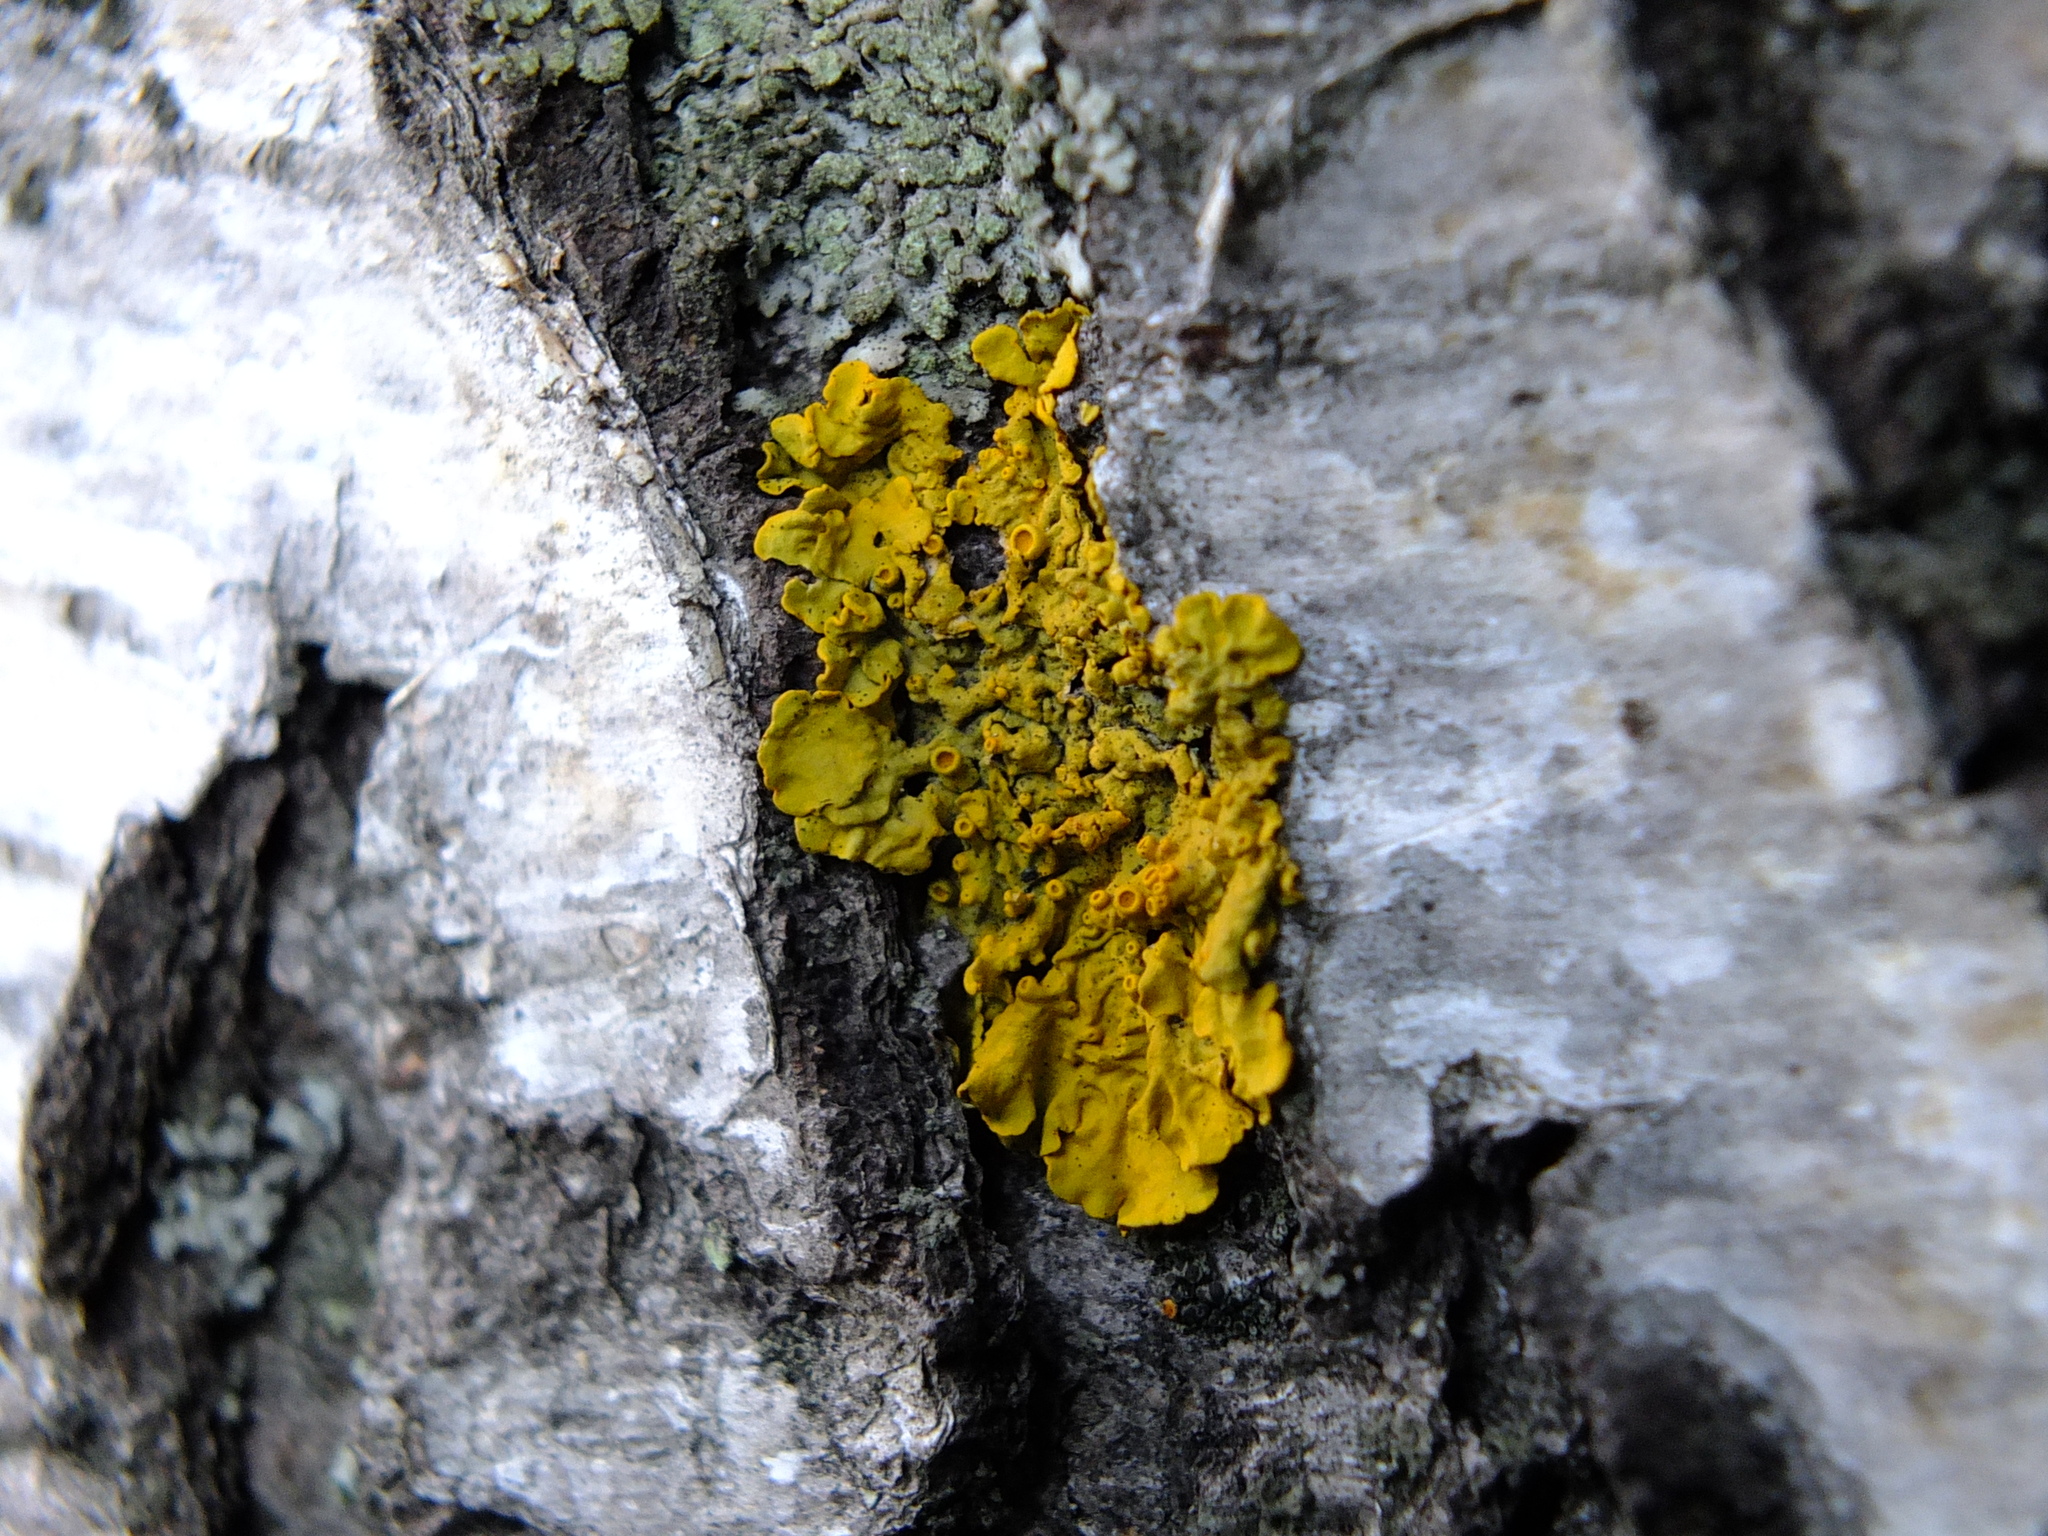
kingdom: Fungi
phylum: Ascomycota
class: Lecanoromycetes
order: Teloschistales
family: Teloschistaceae
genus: Xanthoria
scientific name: Xanthoria parietina
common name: Common orange lichen
